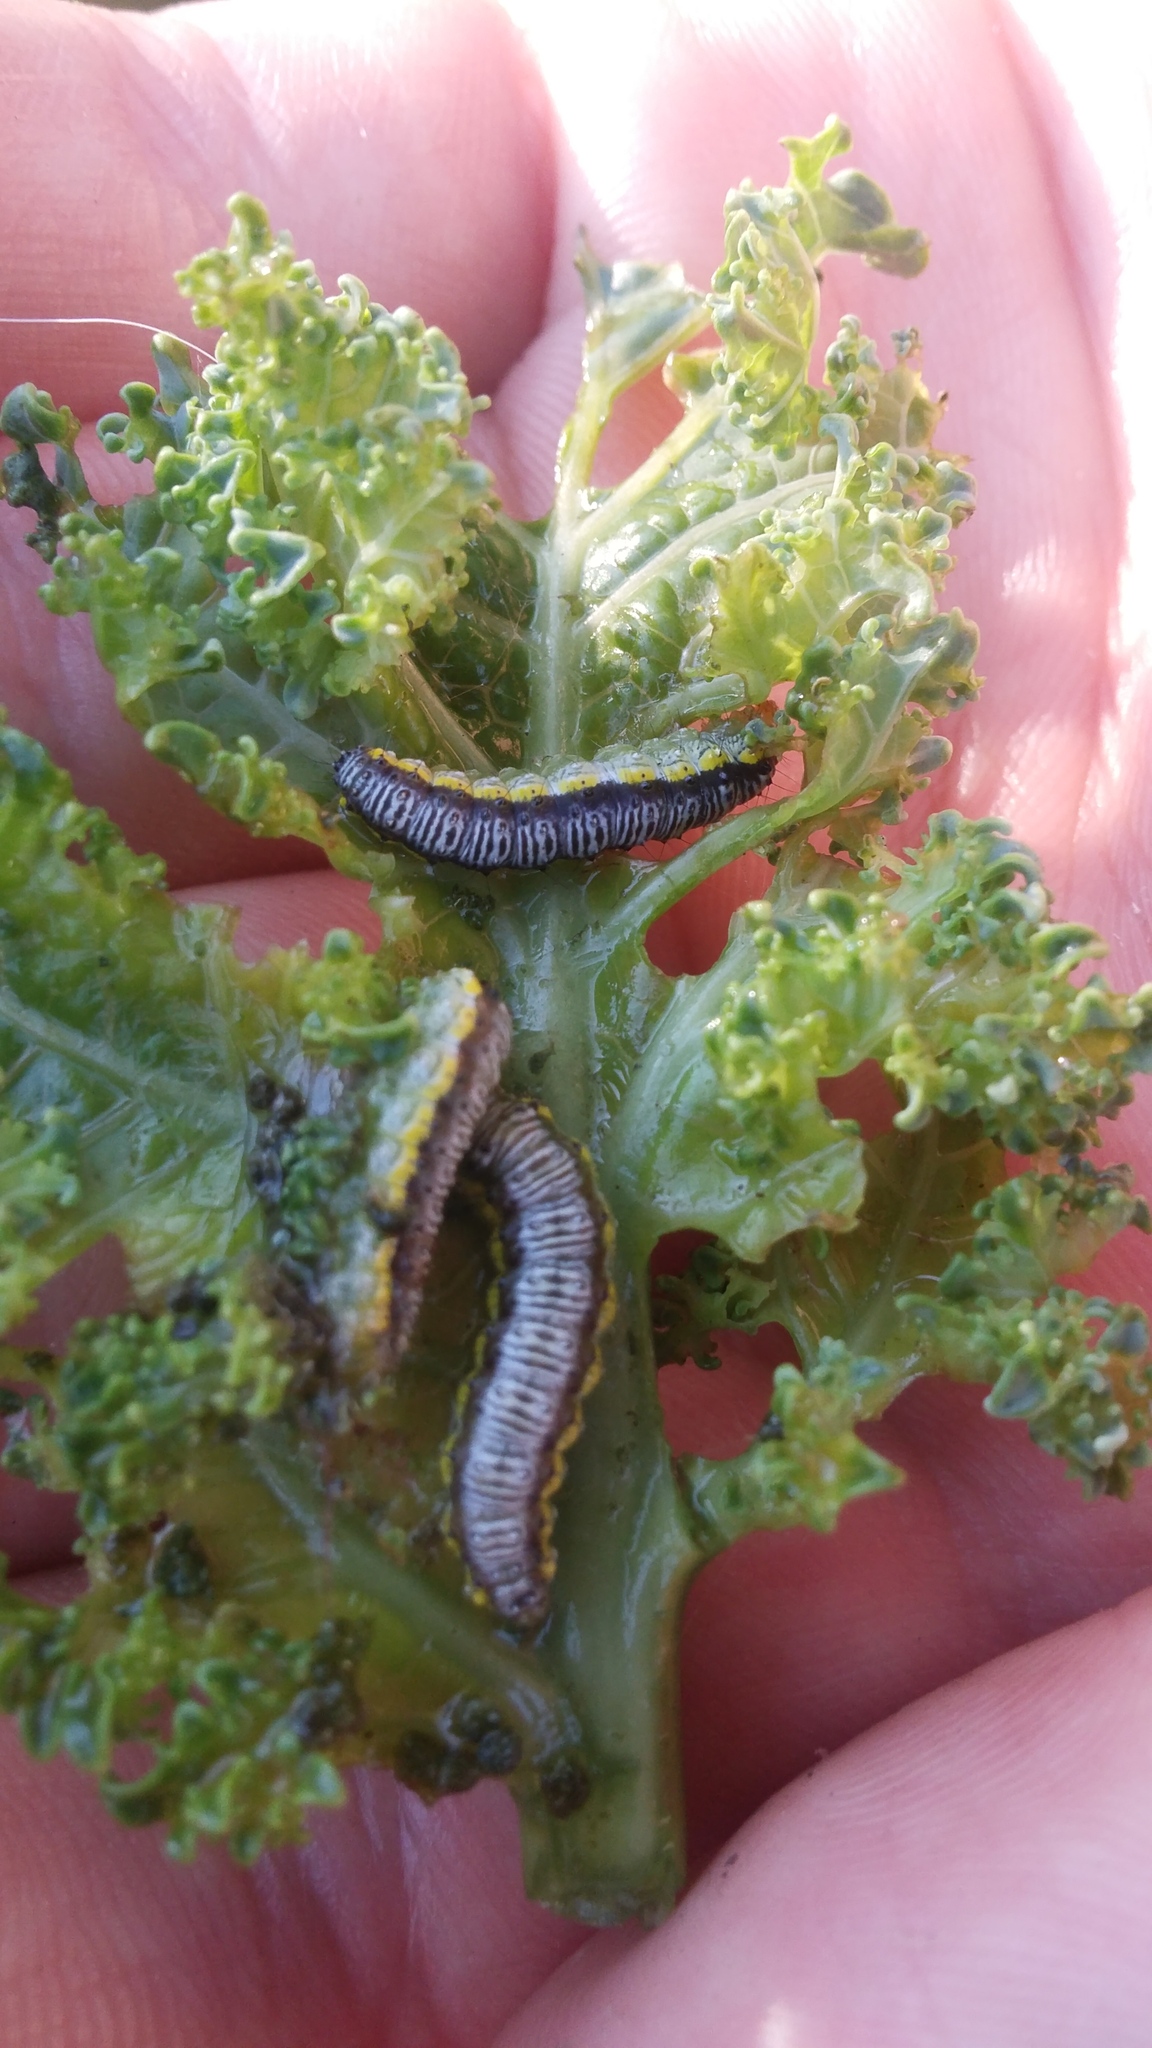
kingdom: Animalia
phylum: Arthropoda
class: Insecta
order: Lepidoptera
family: Crambidae
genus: Evergestis
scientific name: Evergestis rimosalis
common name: Cross-striped cabbageworm moth
